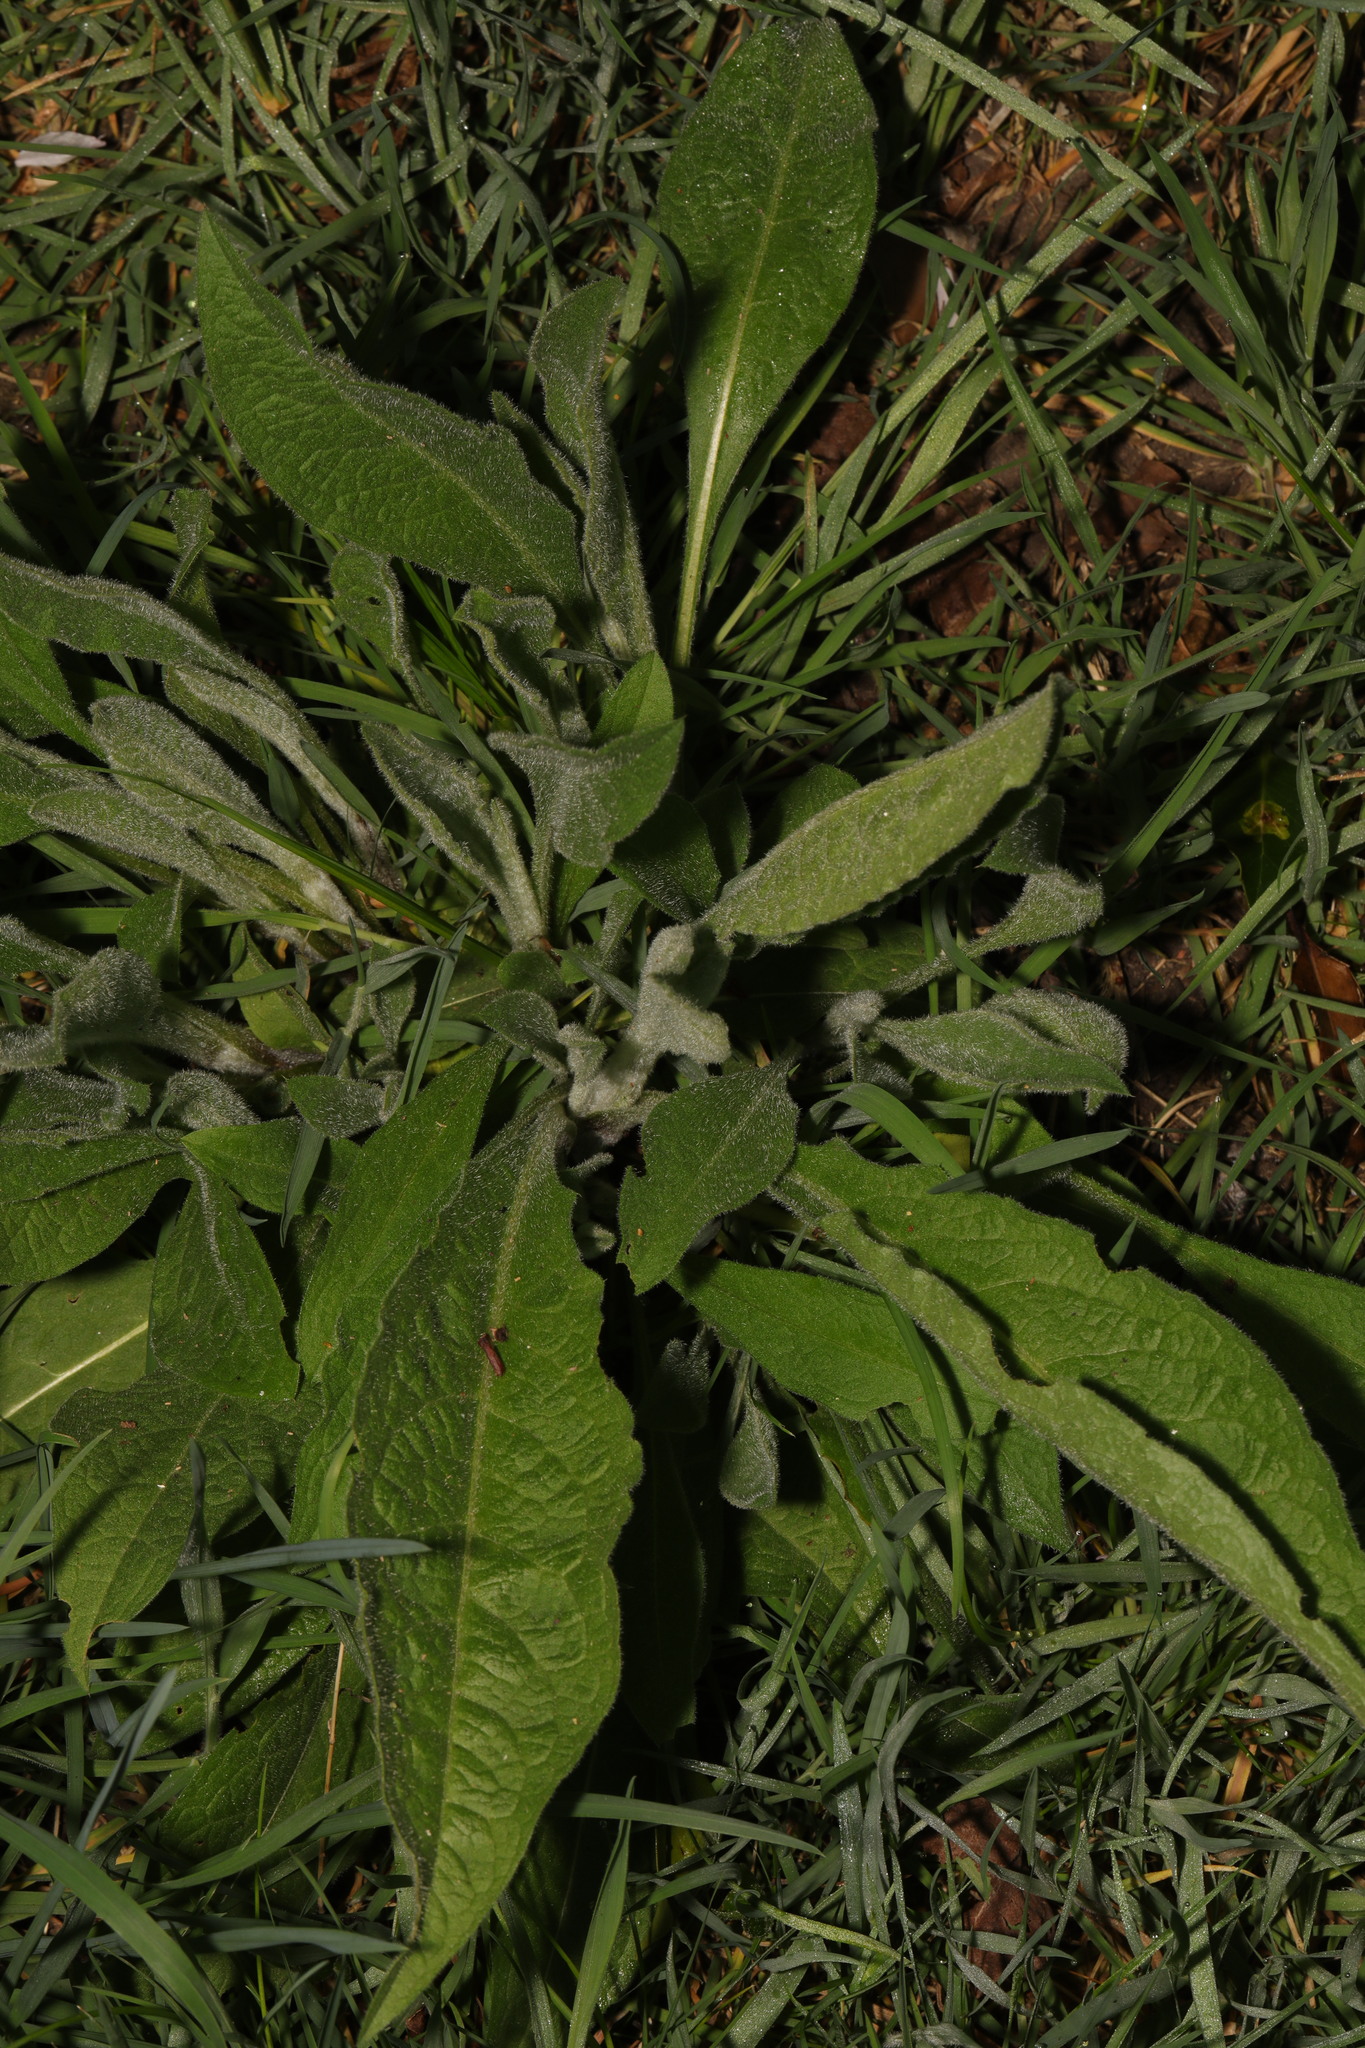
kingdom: Plantae
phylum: Tracheophyta
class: Magnoliopsida
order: Asterales
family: Asteraceae
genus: Centaurea
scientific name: Centaurea nigra
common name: Lesser knapweed
